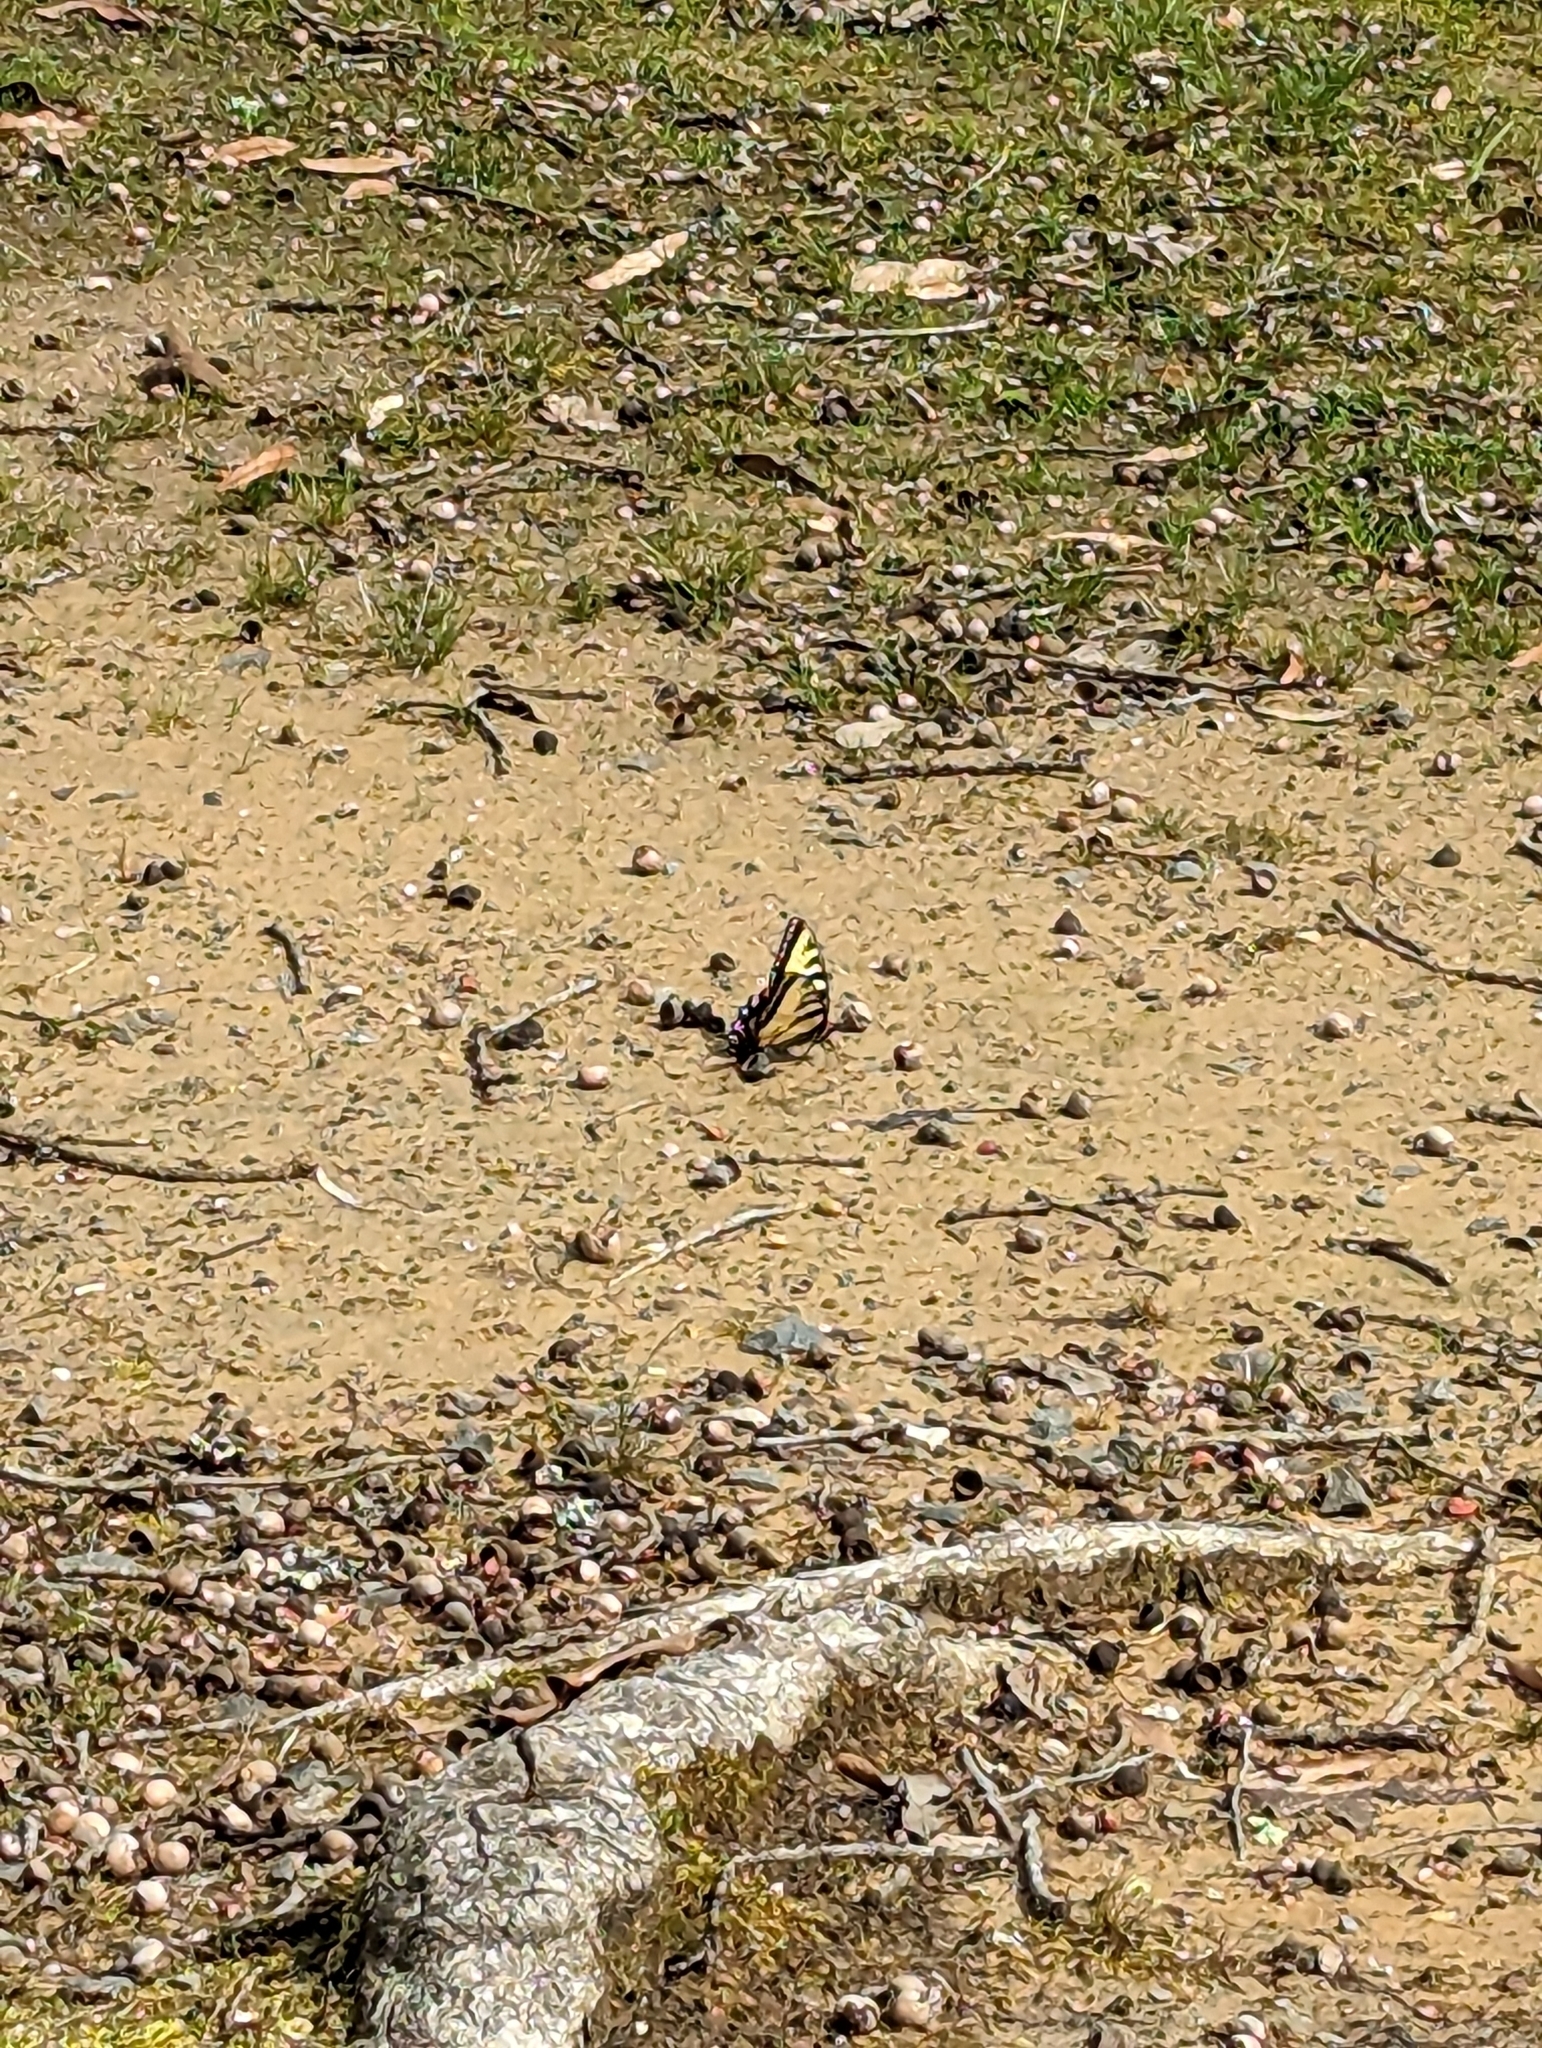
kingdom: Animalia
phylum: Arthropoda
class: Insecta
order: Lepidoptera
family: Papilionidae
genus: Papilio
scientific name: Papilio glaucus
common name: Tiger swallowtail
